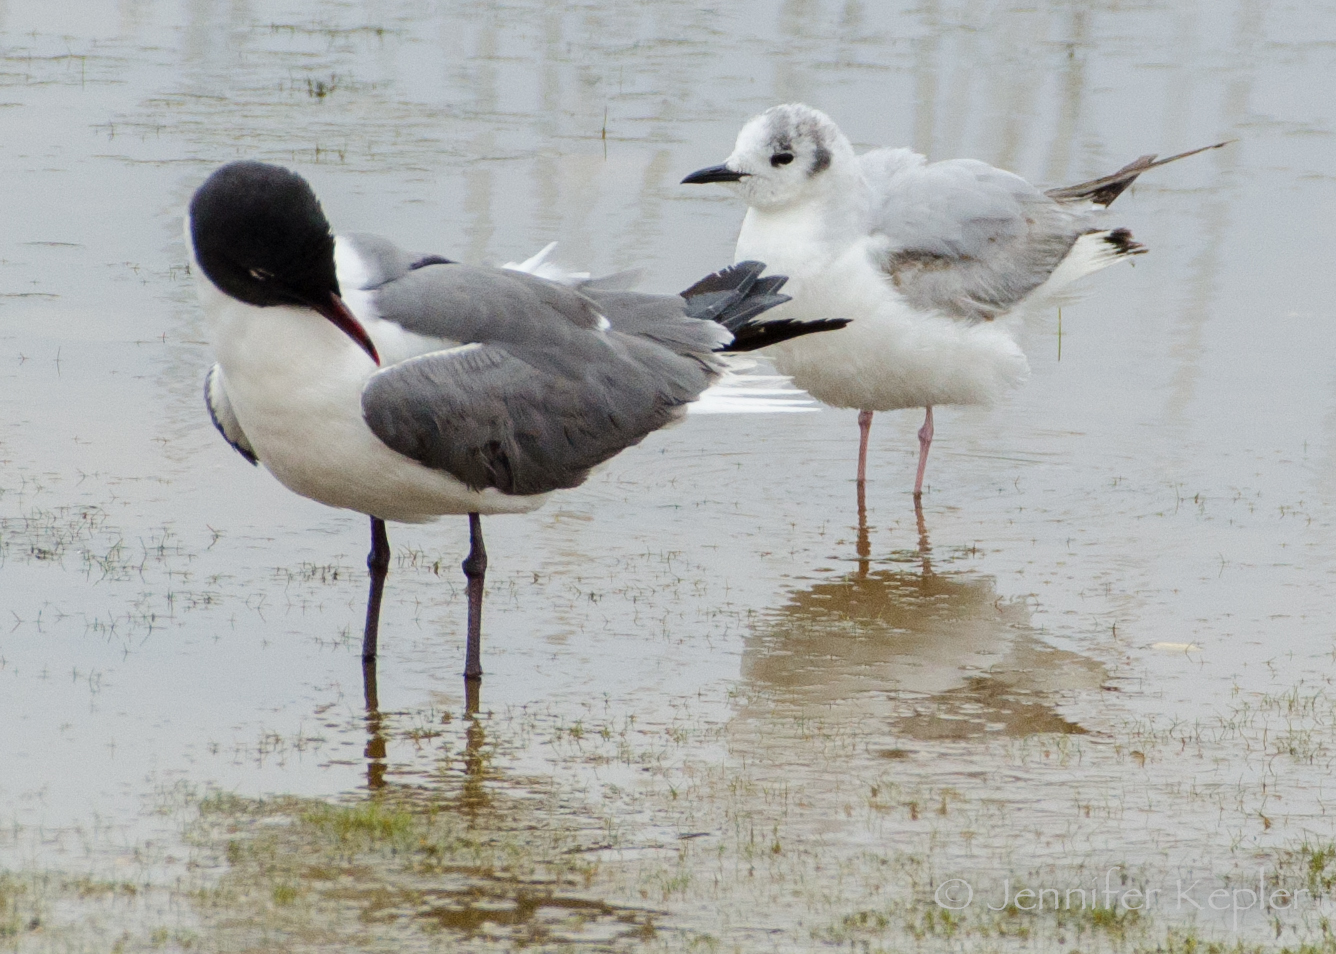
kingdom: Animalia
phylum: Chordata
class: Aves
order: Charadriiformes
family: Laridae
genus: Chroicocephalus
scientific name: Chroicocephalus philadelphia
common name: Bonaparte's gull
